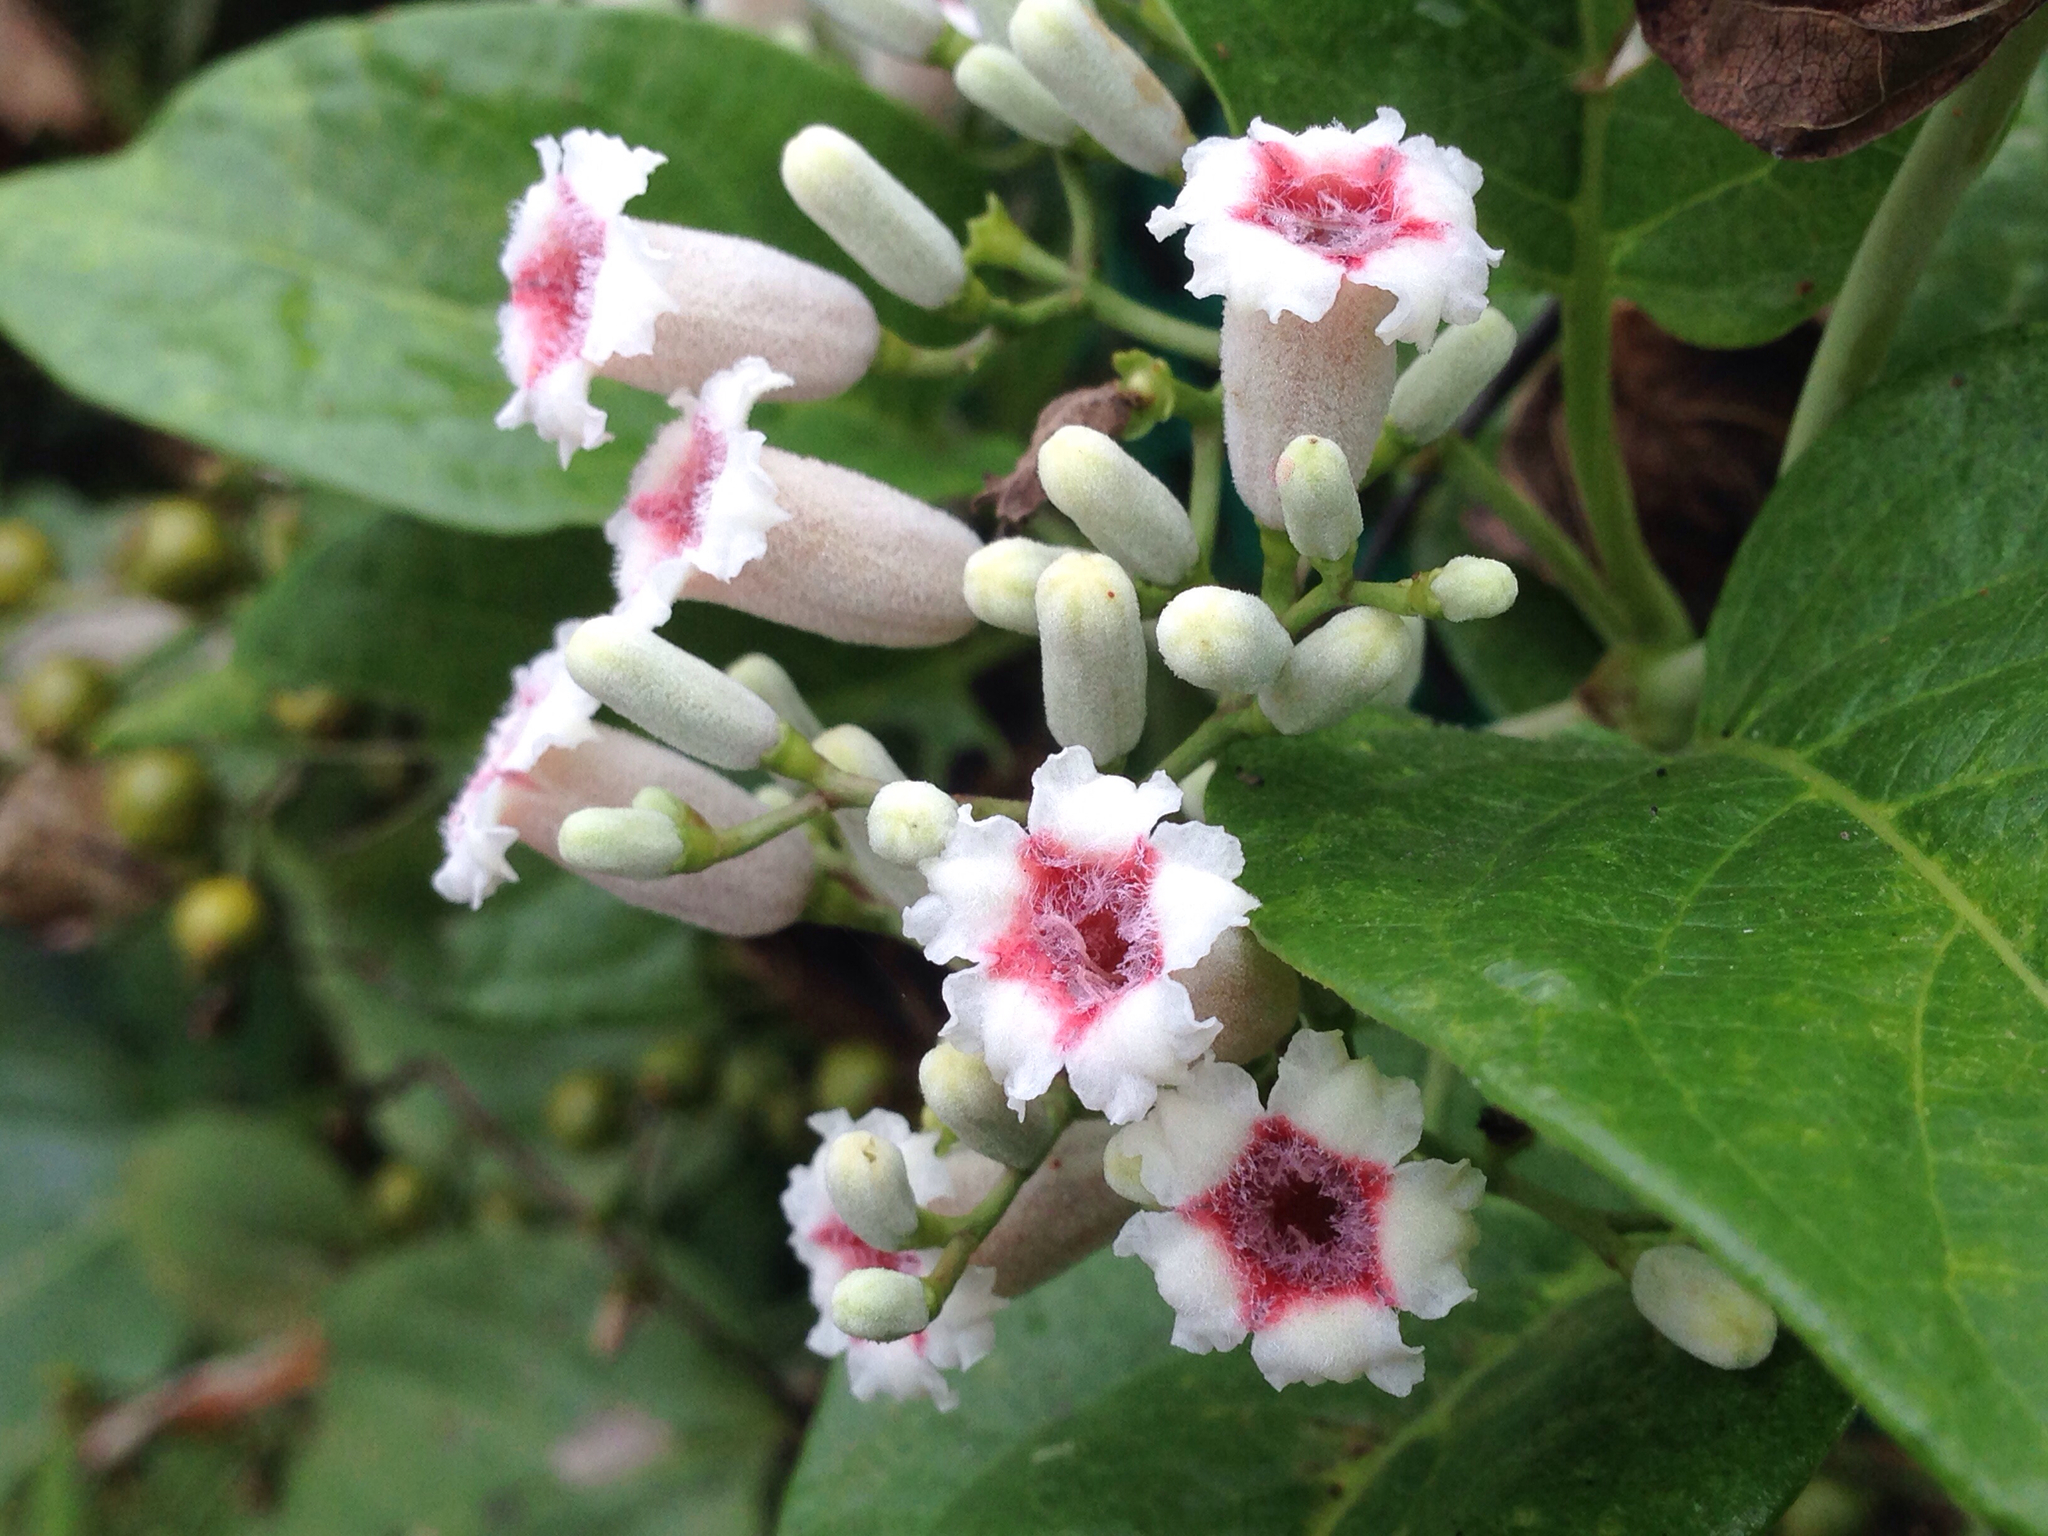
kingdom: Plantae
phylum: Tracheophyta
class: Magnoliopsida
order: Gentianales
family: Rubiaceae
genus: Paederia
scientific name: Paederia foetida
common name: Stinkvine
